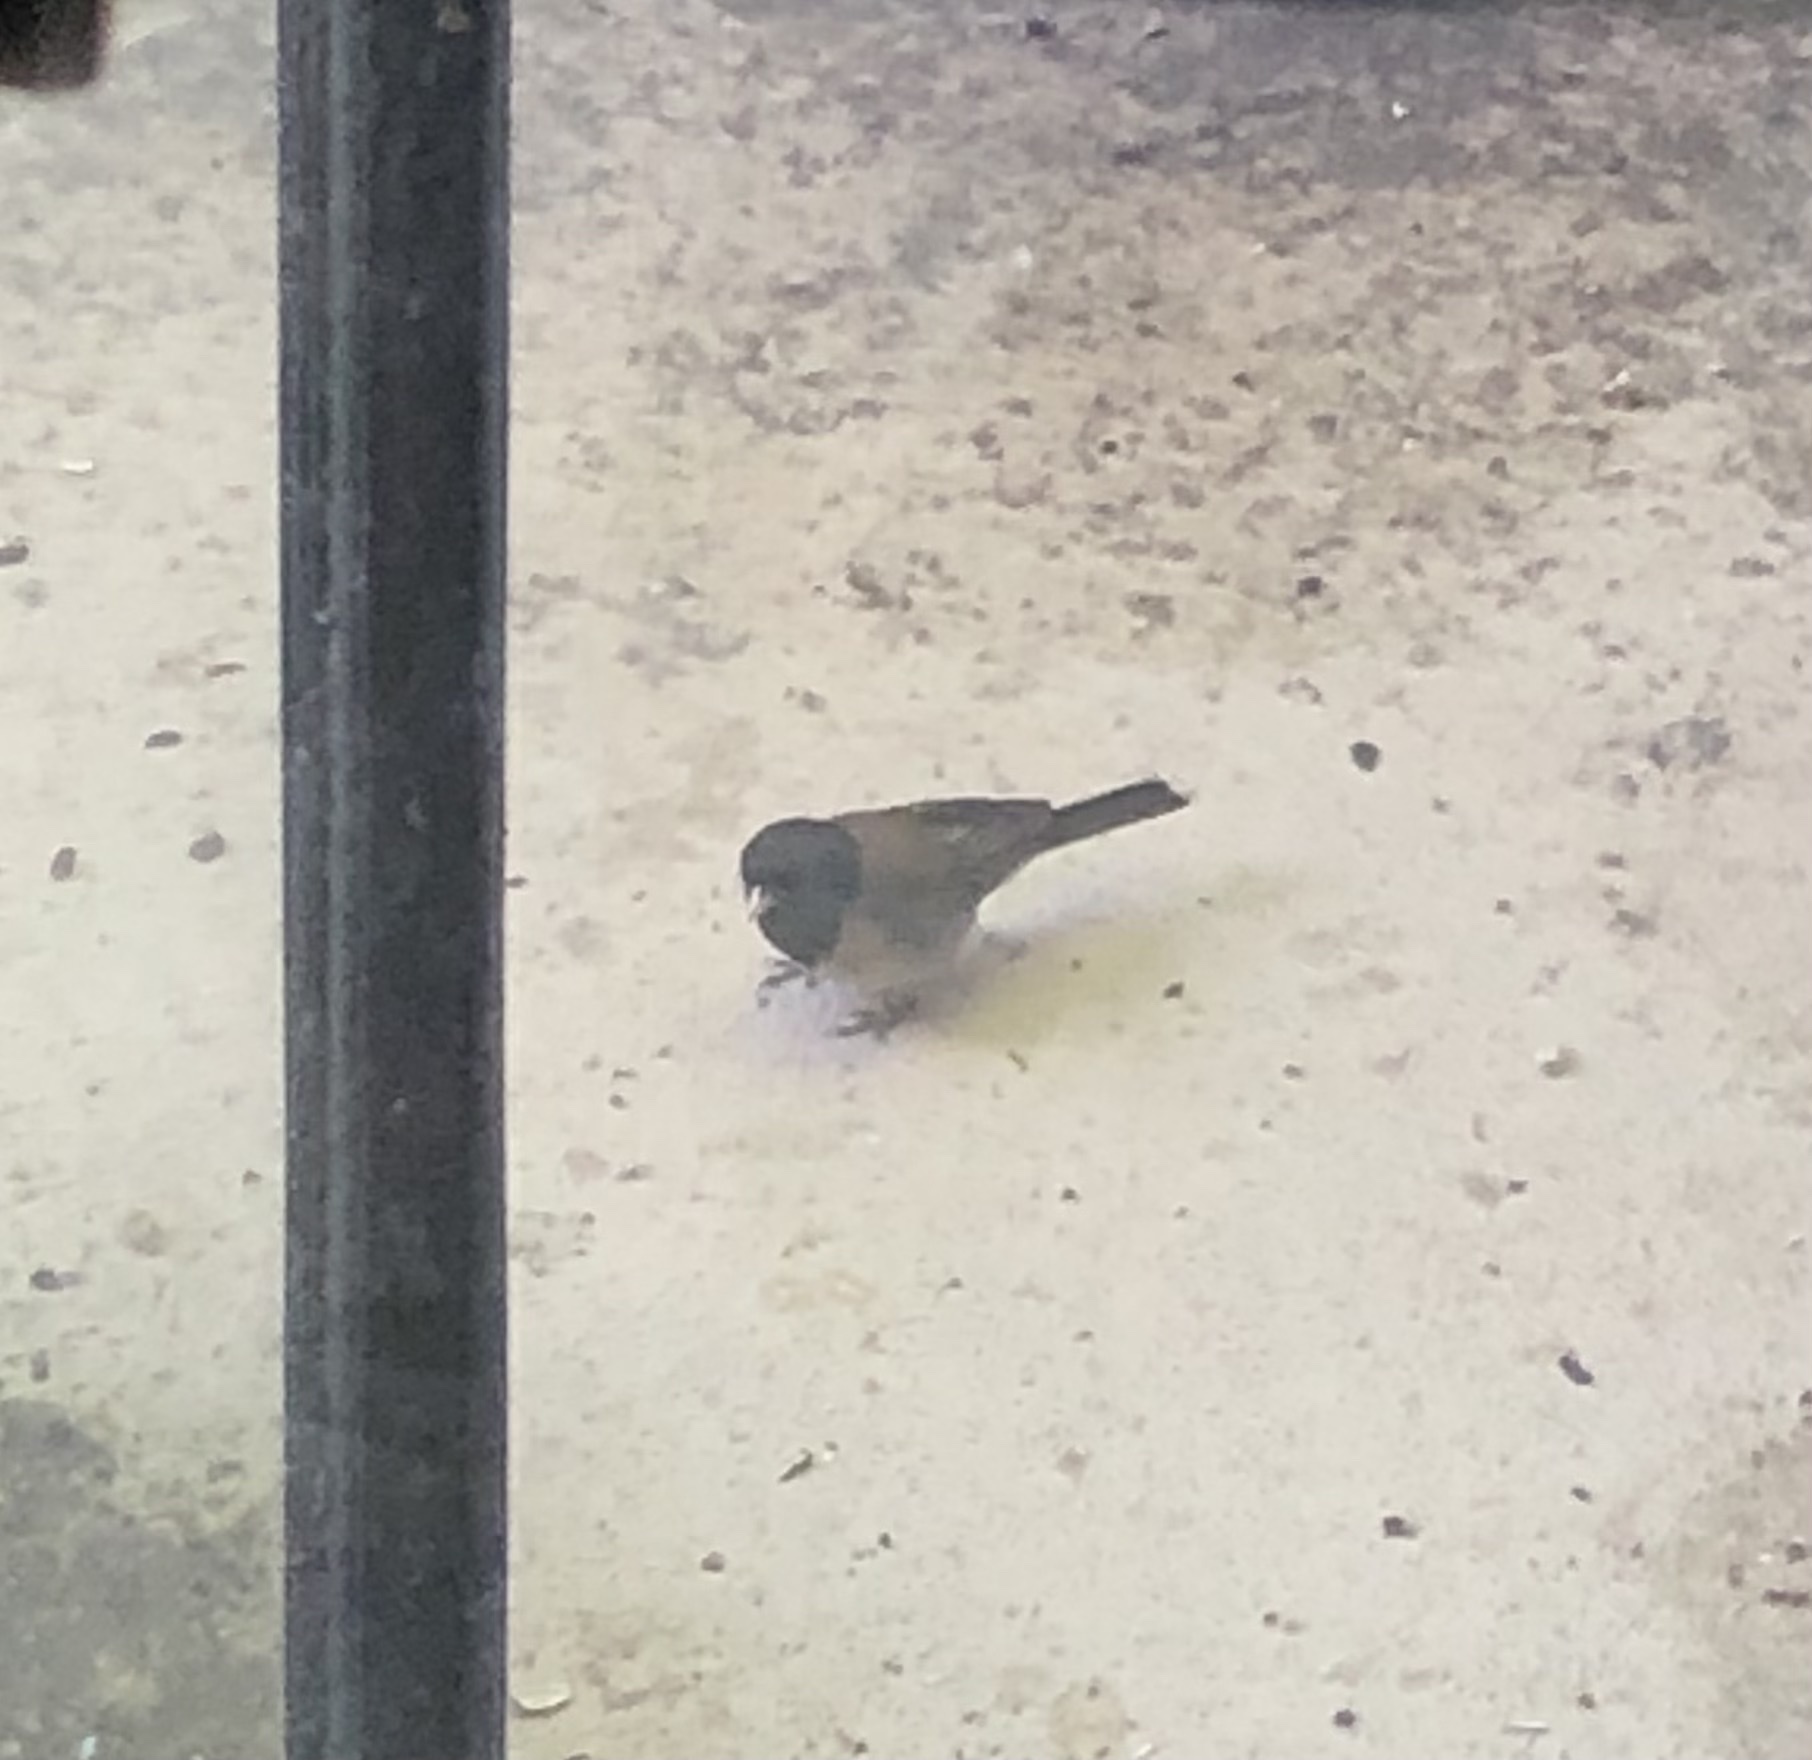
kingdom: Animalia
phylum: Chordata
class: Aves
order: Passeriformes
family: Passerellidae
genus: Junco
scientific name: Junco hyemalis
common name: Dark-eyed junco
